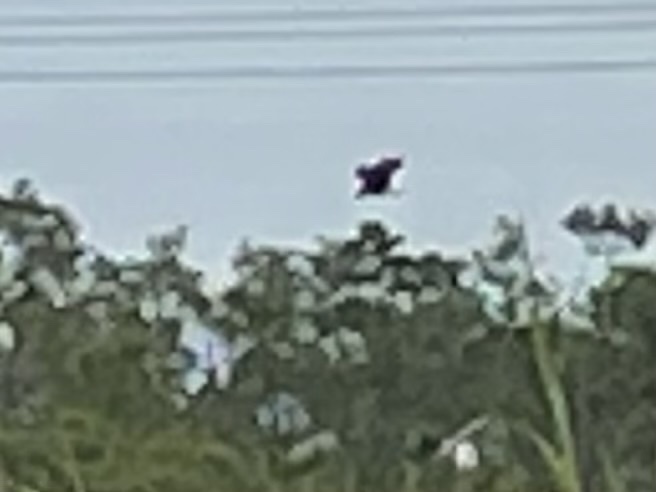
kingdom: Animalia
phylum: Chordata
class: Aves
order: Accipitriformes
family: Accipitridae
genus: Rostrhamus
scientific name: Rostrhamus sociabilis
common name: Snail kite
